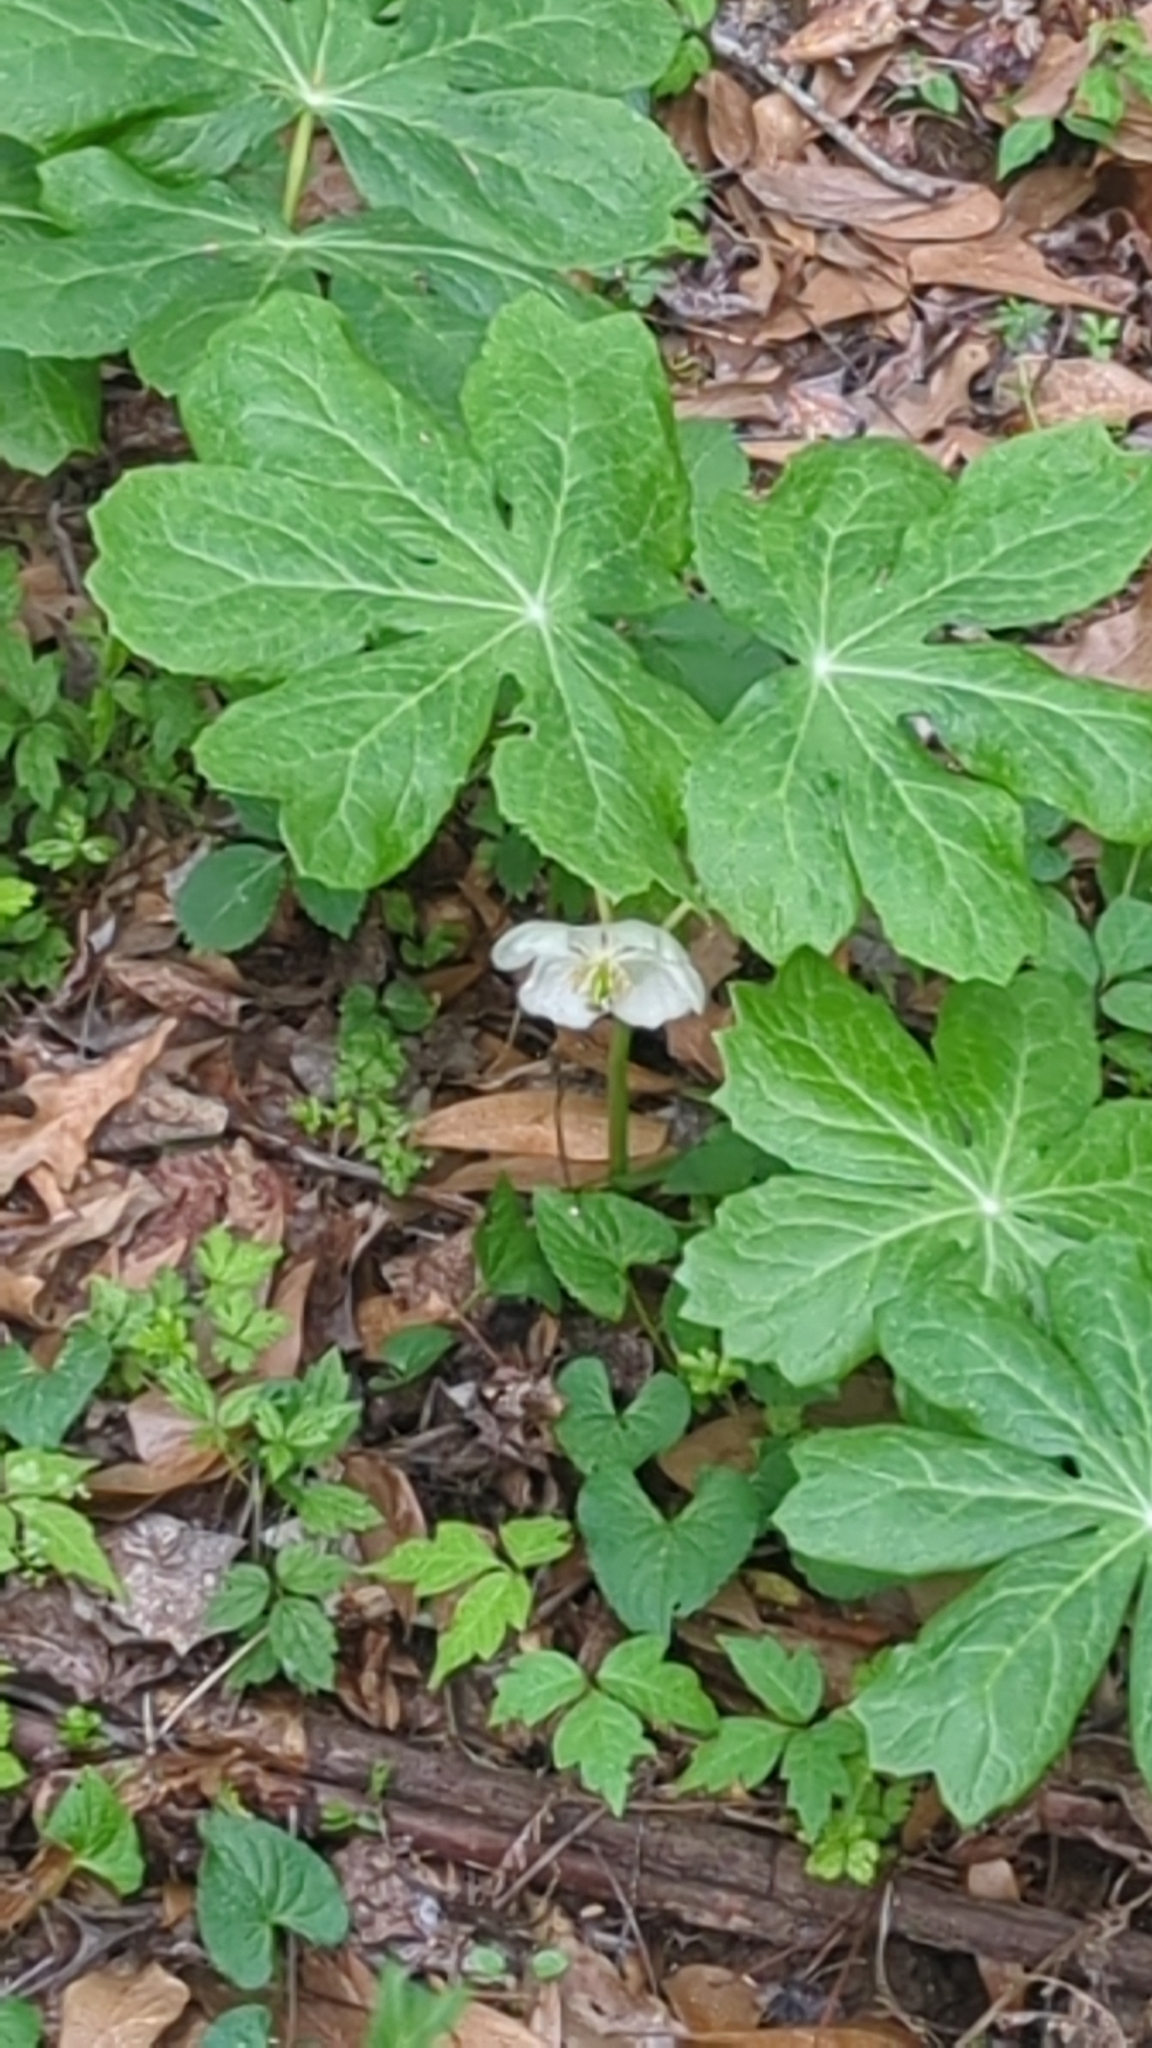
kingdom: Plantae
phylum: Tracheophyta
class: Magnoliopsida
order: Ranunculales
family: Berberidaceae
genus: Podophyllum
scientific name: Podophyllum peltatum
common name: Wild mandrake
